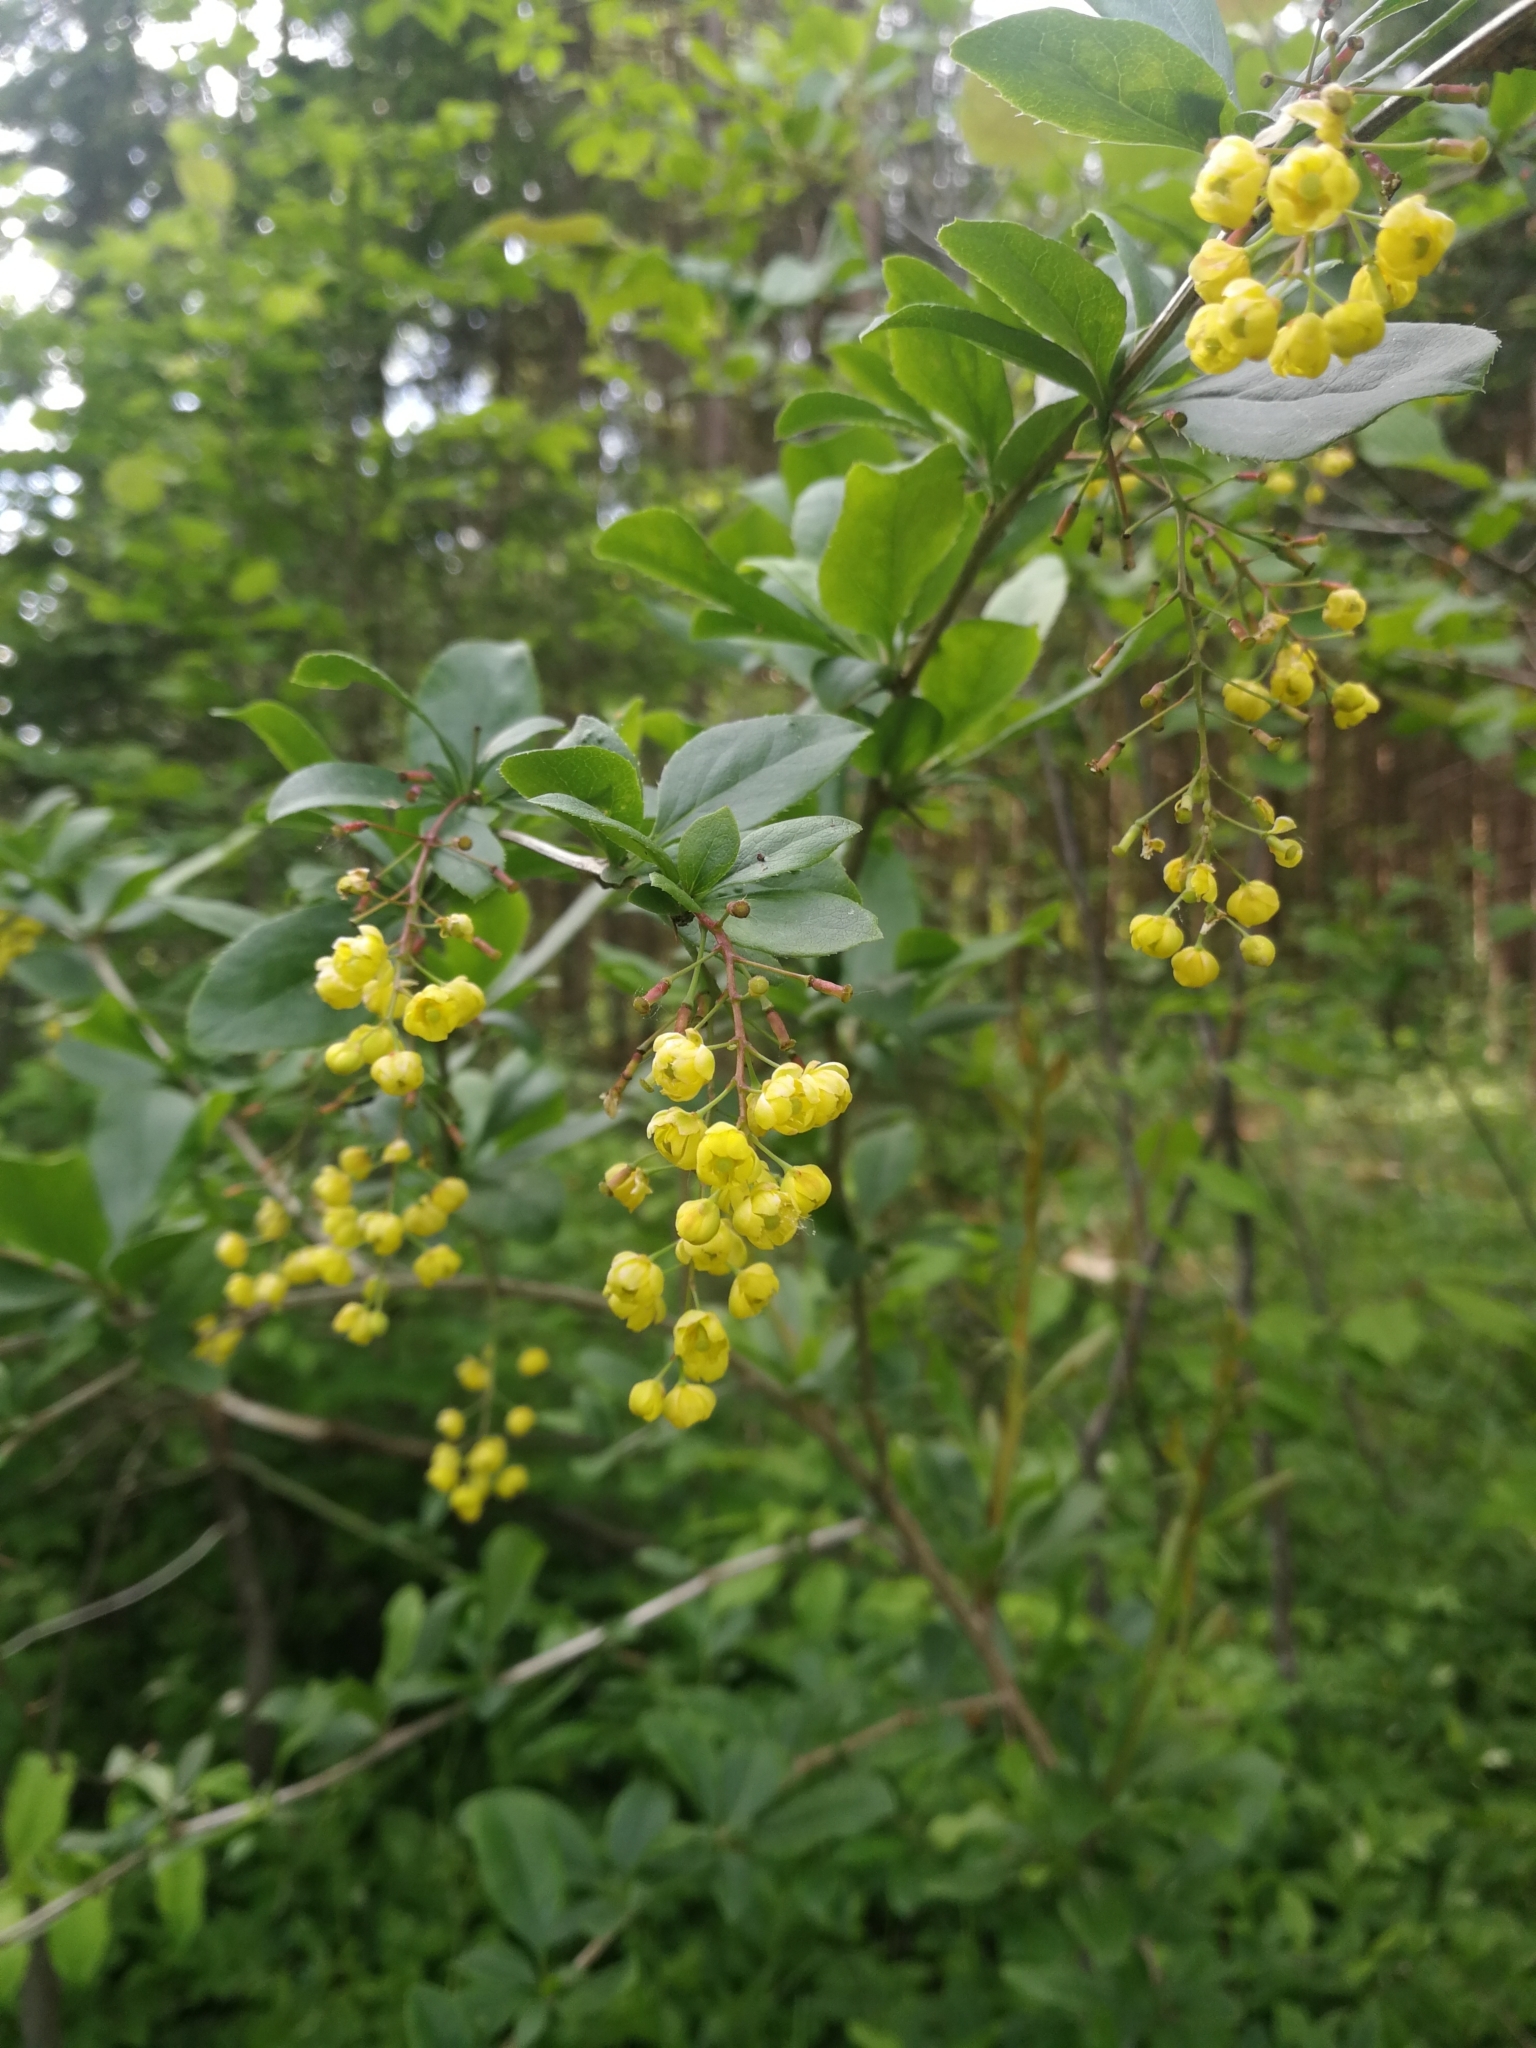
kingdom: Plantae
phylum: Tracheophyta
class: Magnoliopsida
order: Ranunculales
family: Berberidaceae
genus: Berberis
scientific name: Berberis vulgaris
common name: Barberry
